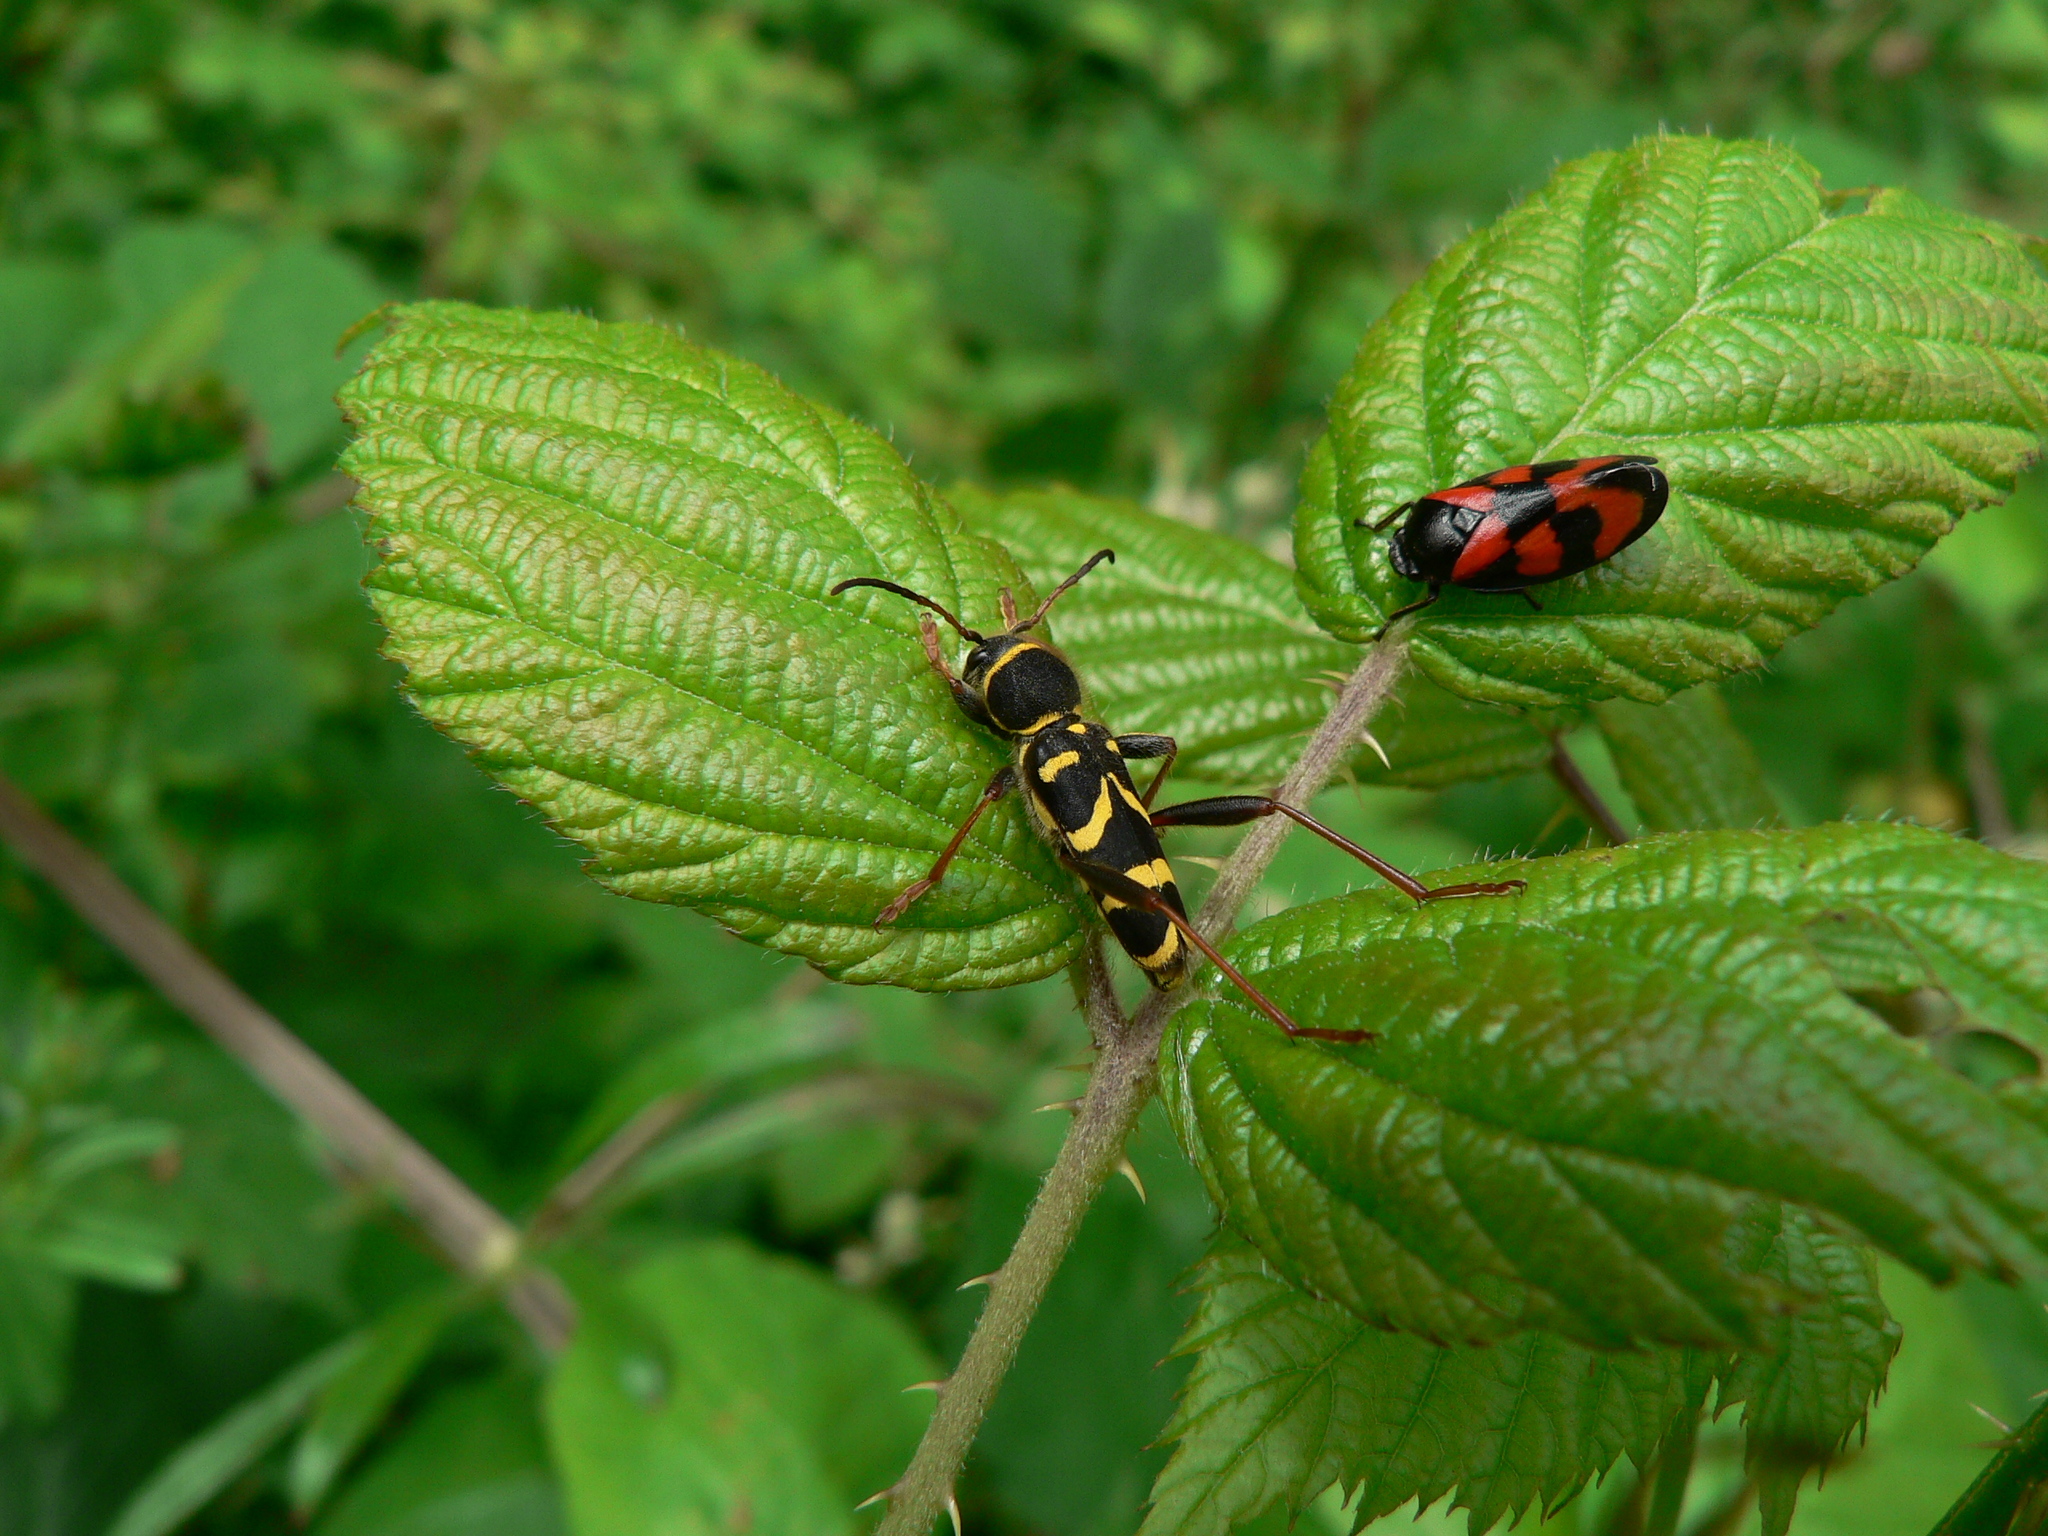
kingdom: Animalia
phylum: Arthropoda
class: Insecta
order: Coleoptera
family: Cerambycidae
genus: Clytus
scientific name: Clytus arietis
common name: Wasp beetle
